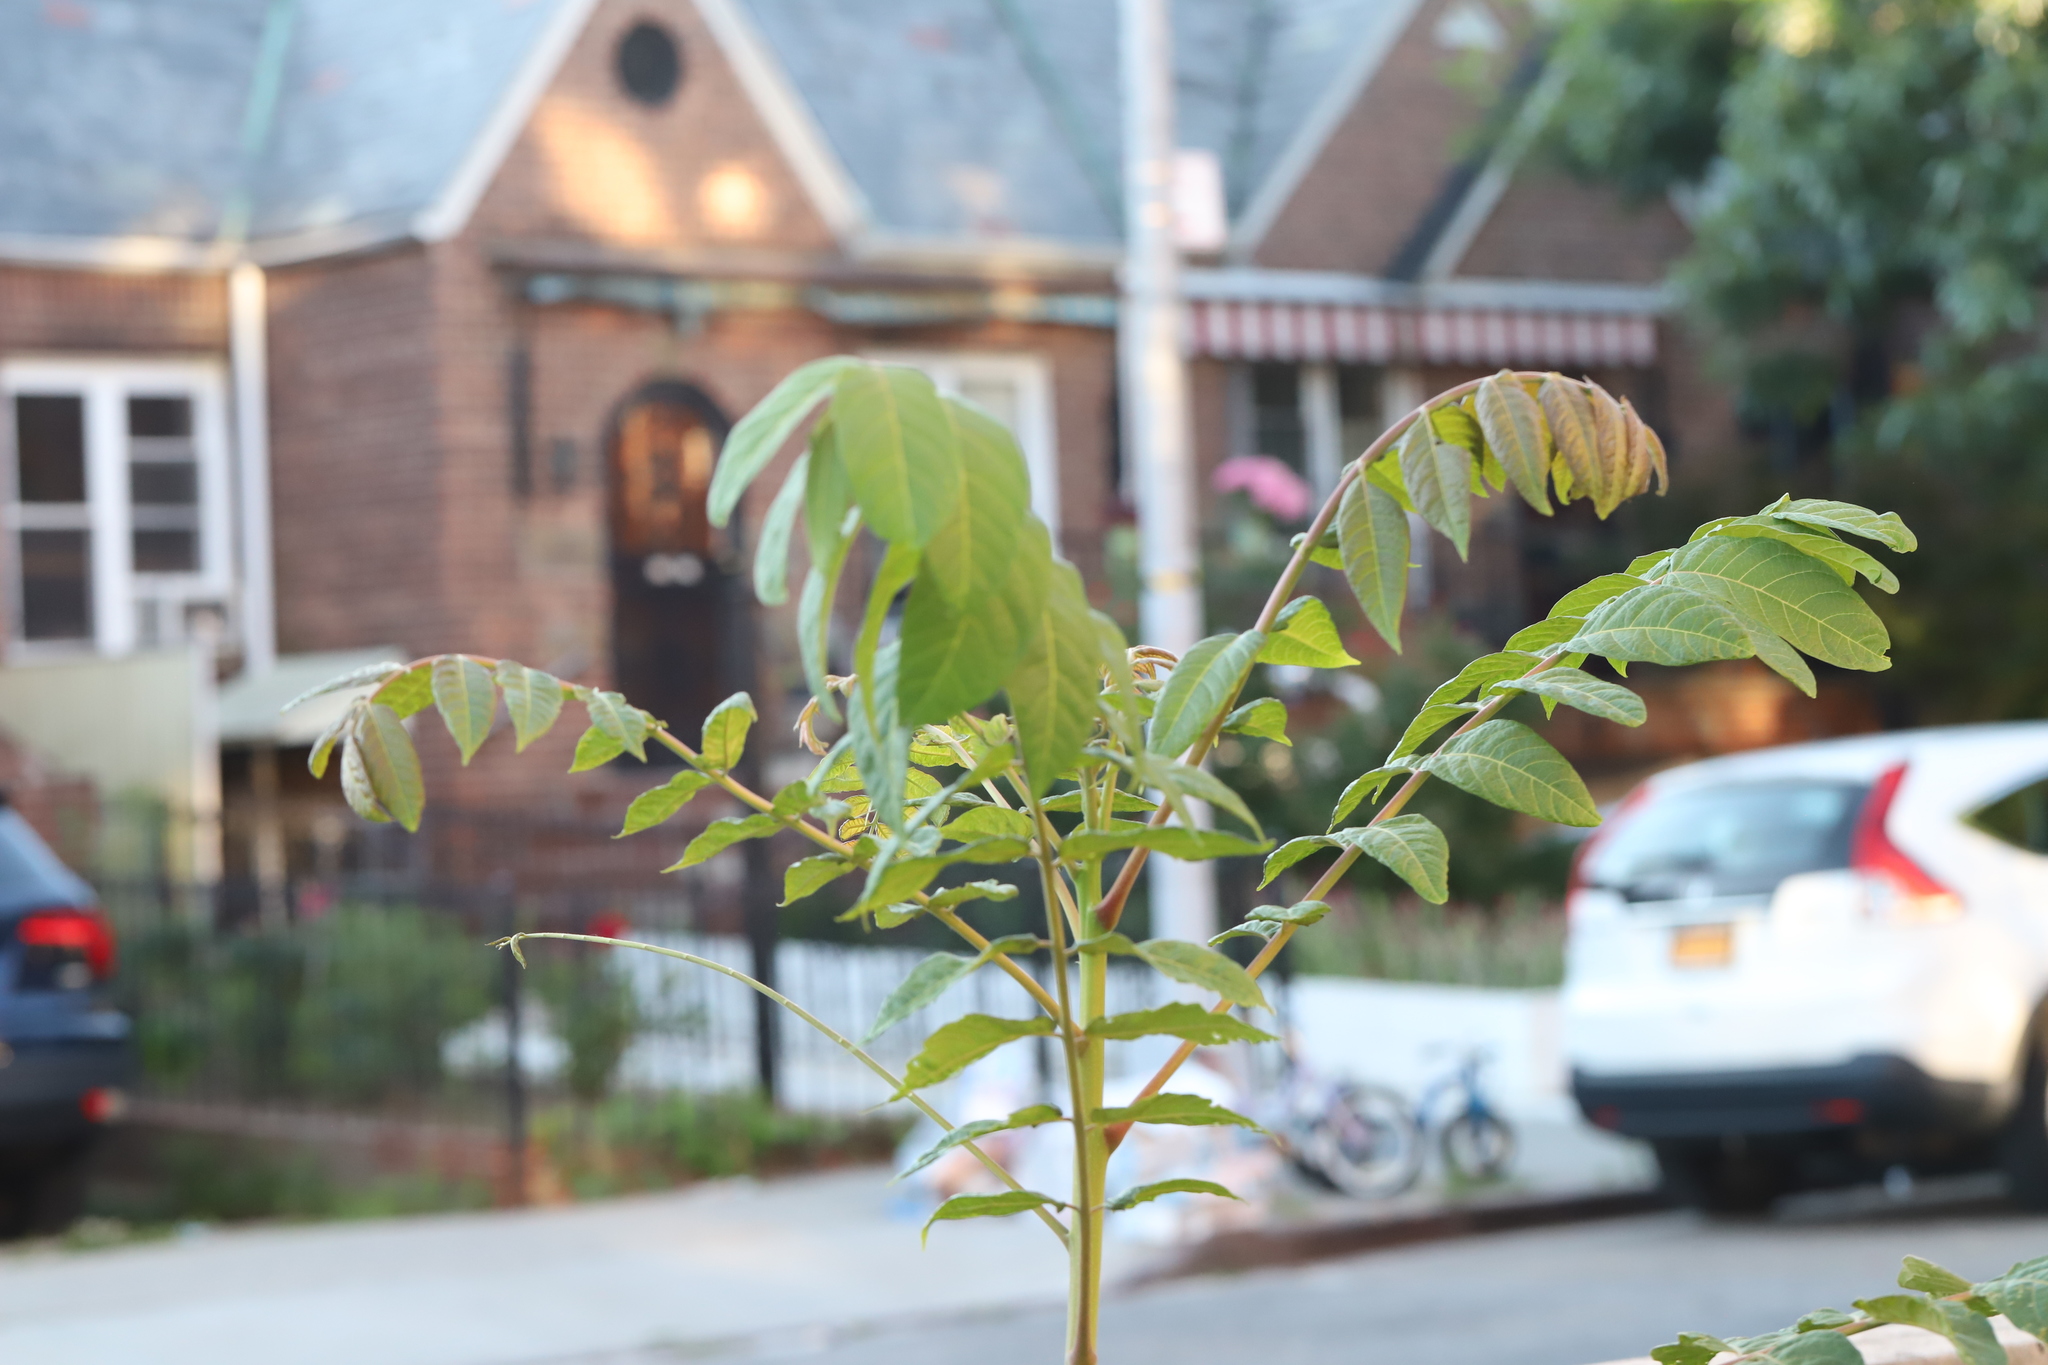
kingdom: Plantae
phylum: Tracheophyta
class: Magnoliopsida
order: Sapindales
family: Simaroubaceae
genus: Ailanthus
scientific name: Ailanthus altissima
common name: Tree-of-heaven
